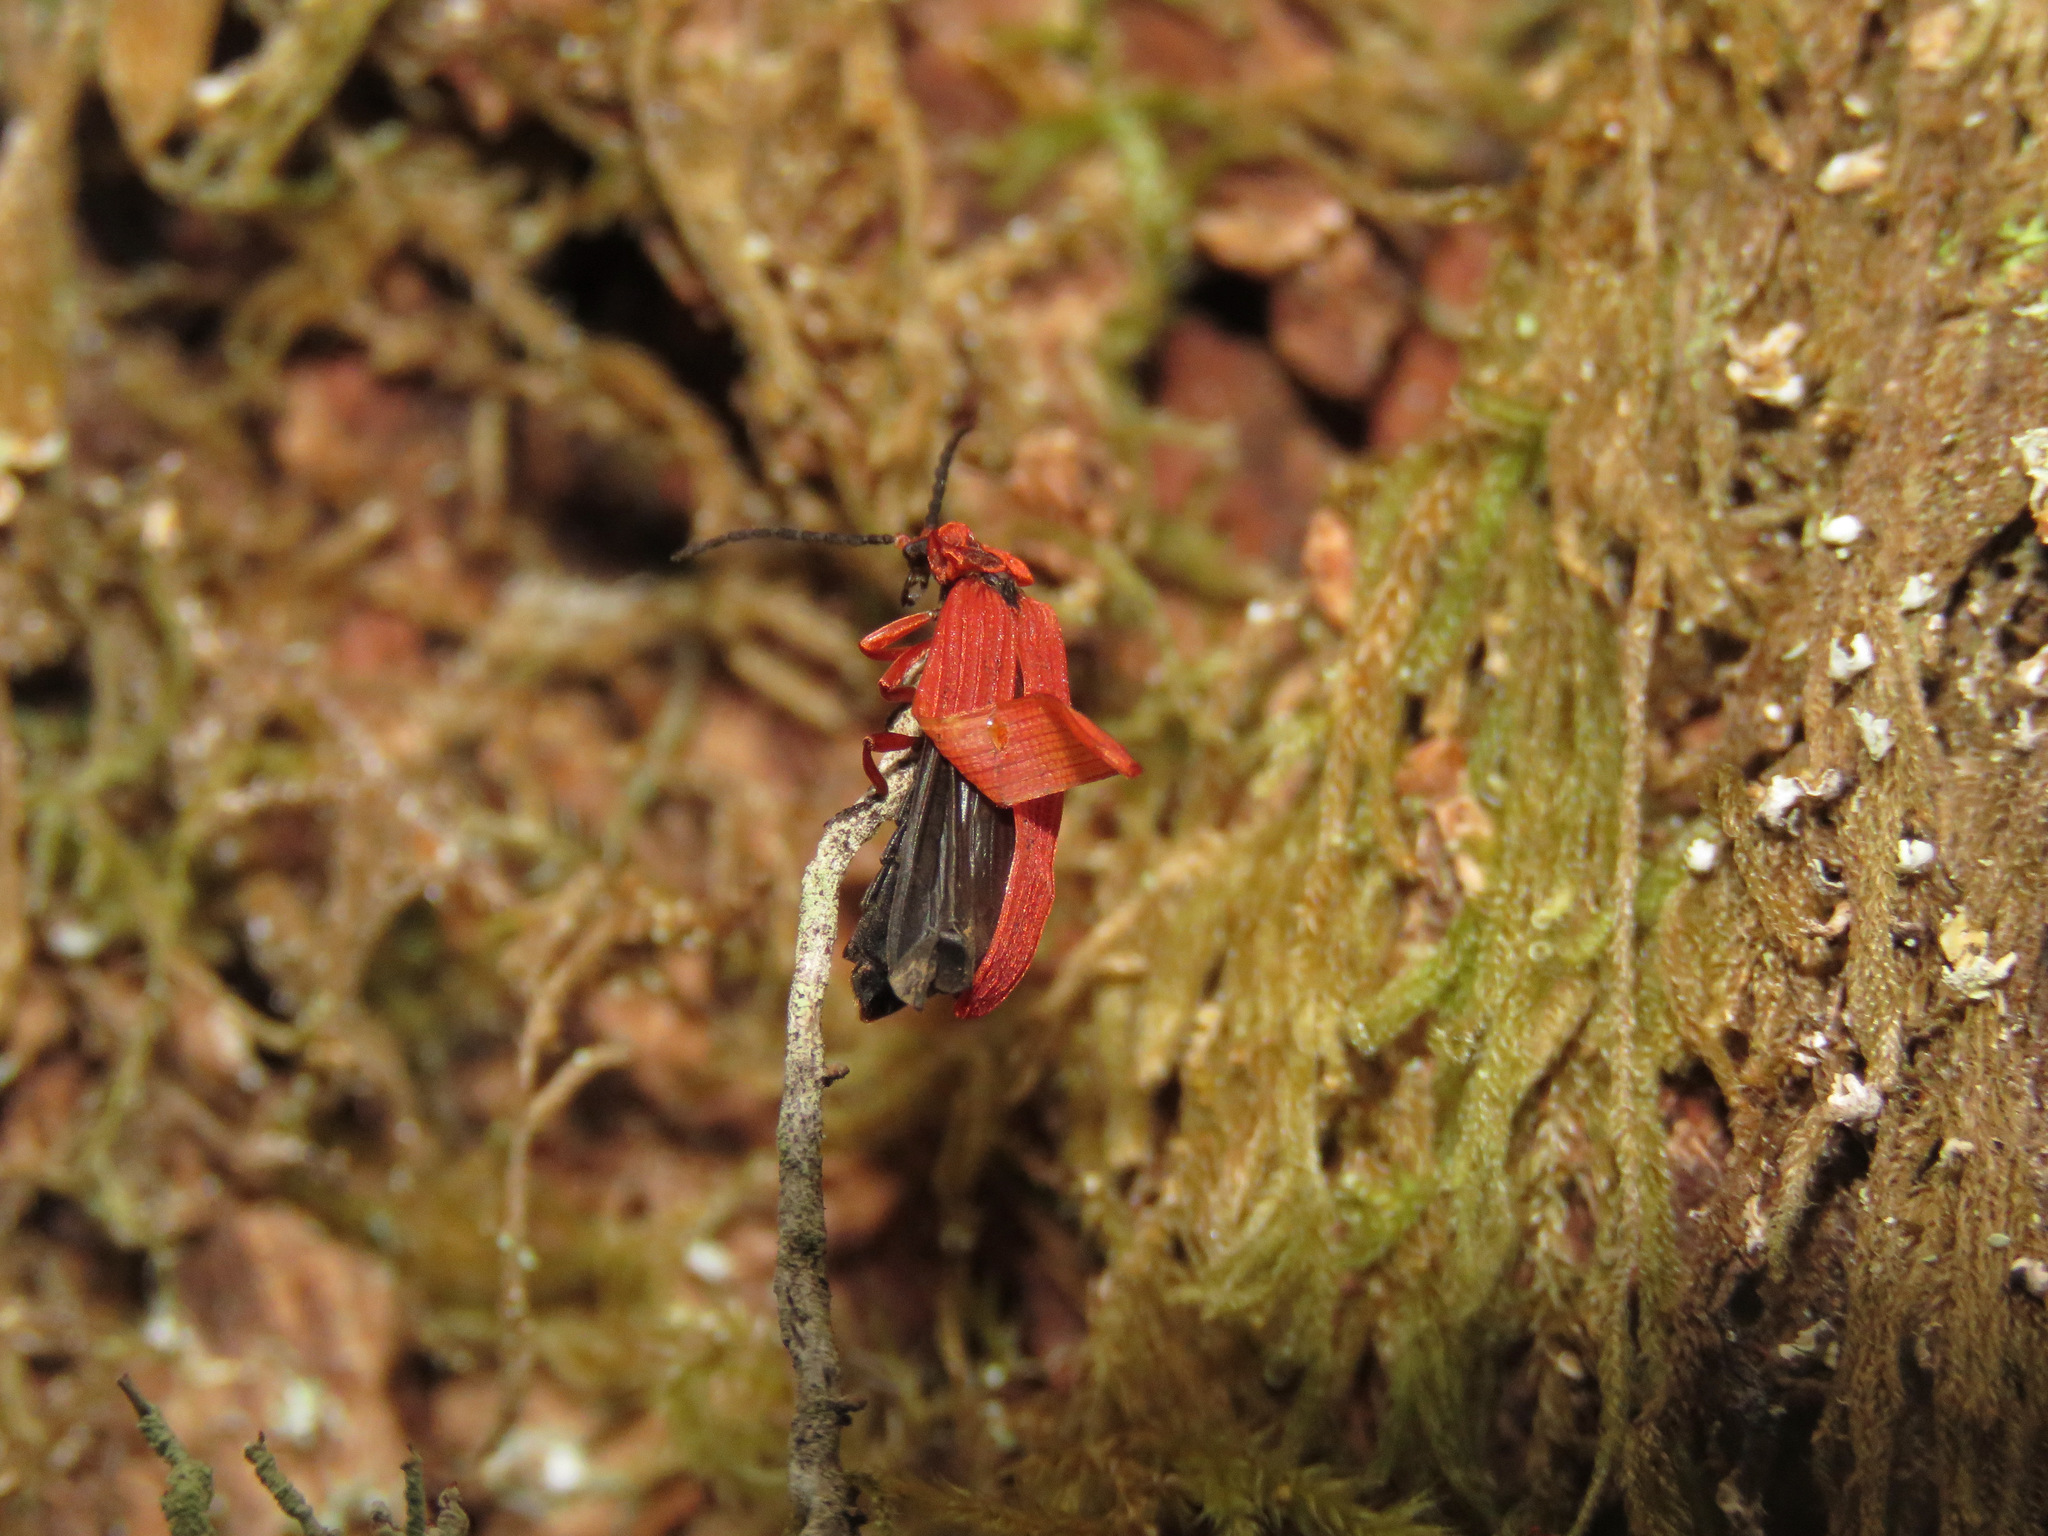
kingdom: Animalia
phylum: Arthropoda
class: Insecta
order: Coleoptera
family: Lycidae
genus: Dictyoptera
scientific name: Dictyoptera simplicipes
